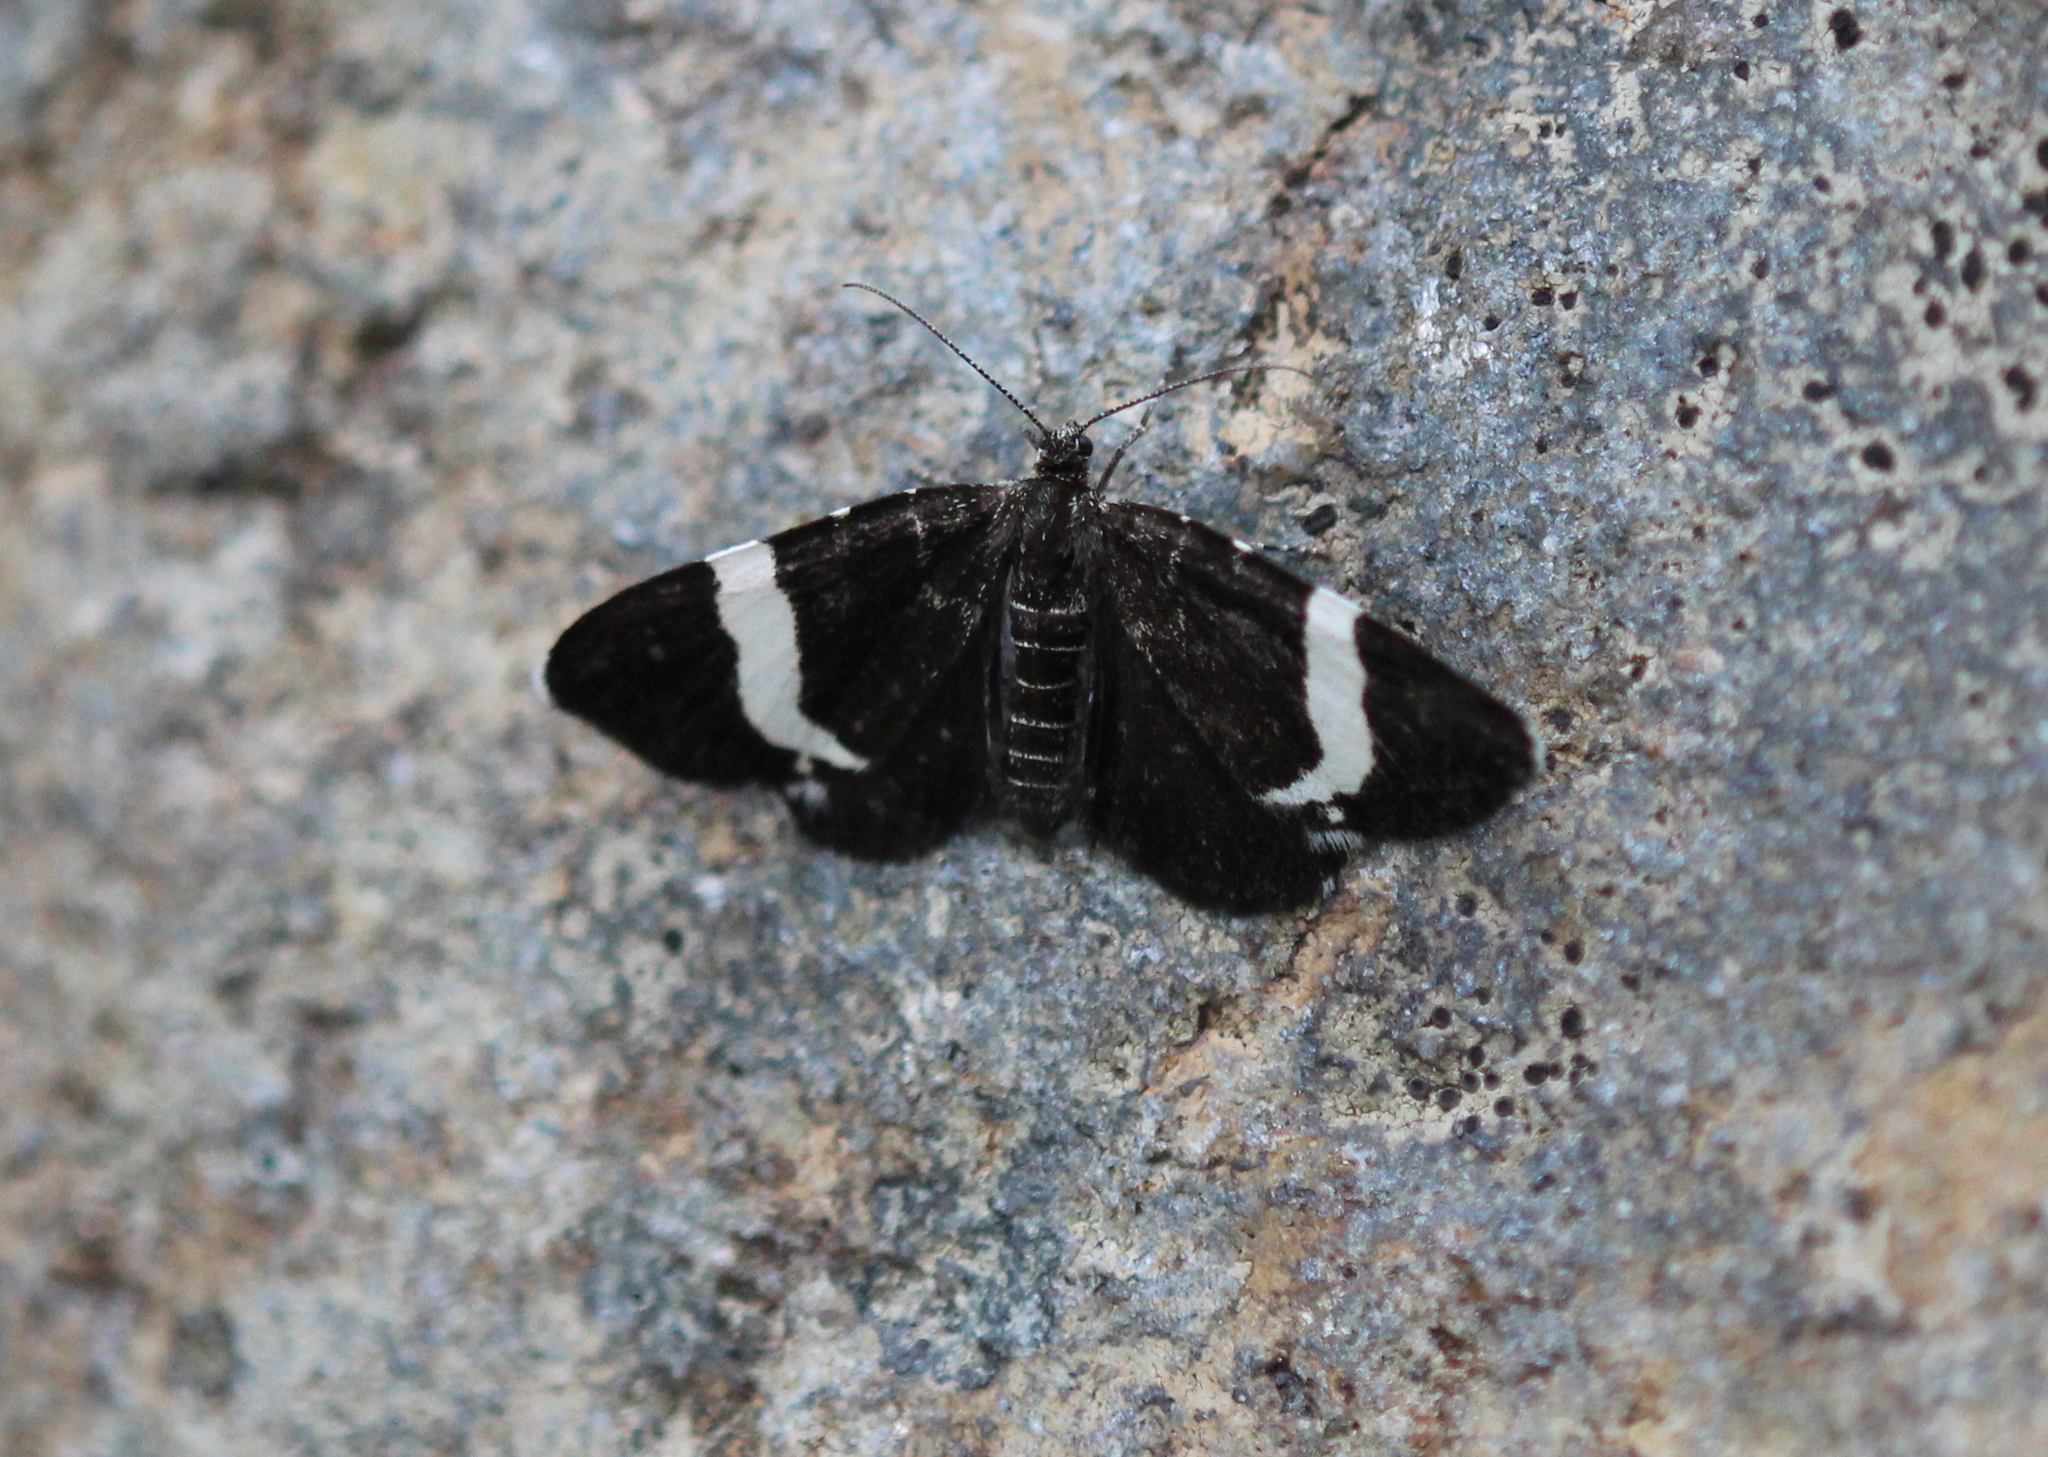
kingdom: Animalia
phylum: Arthropoda
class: Insecta
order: Lepidoptera
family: Geometridae
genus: Trichodezia
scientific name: Trichodezia albovittata
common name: White striped black
